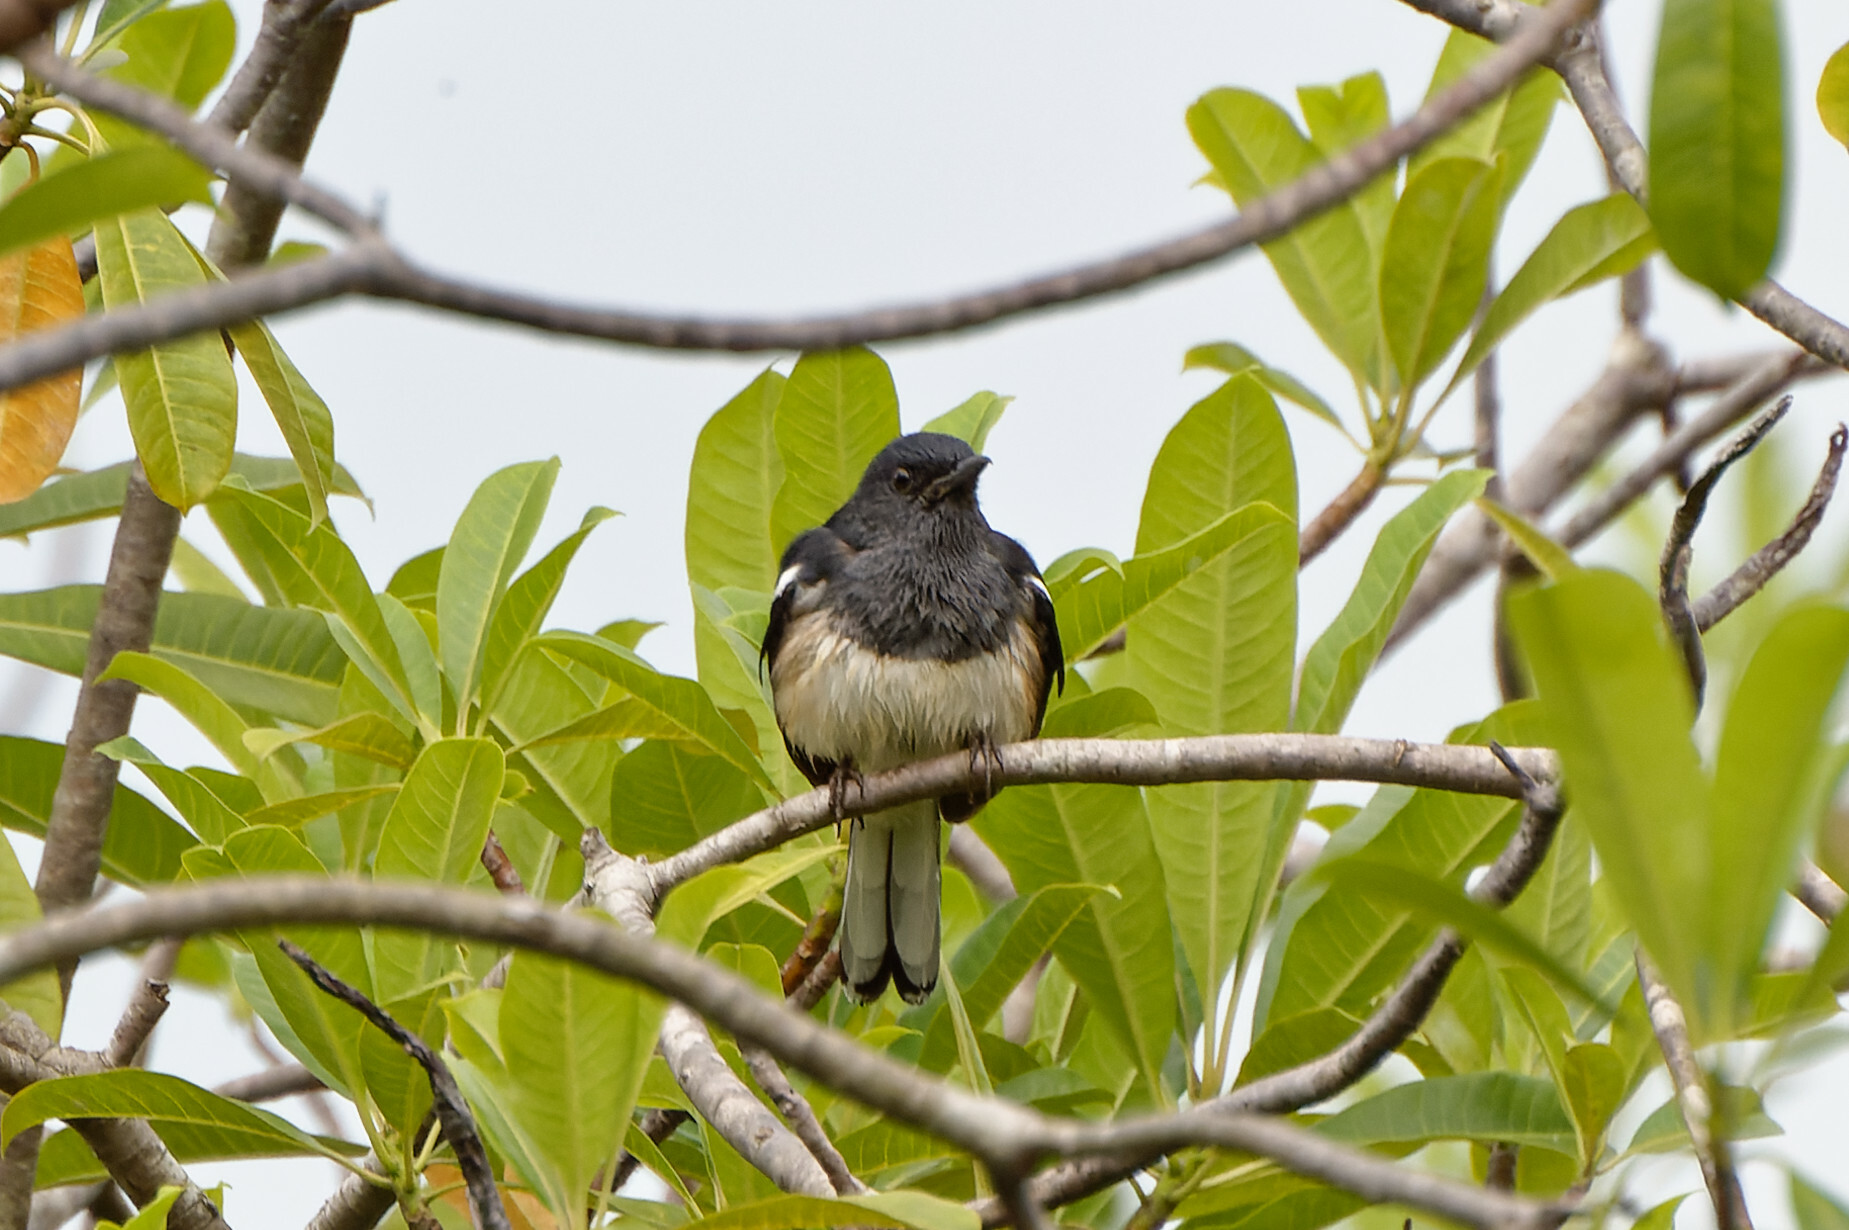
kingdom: Animalia
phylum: Chordata
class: Aves
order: Passeriformes
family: Muscicapidae
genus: Copsychus
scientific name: Copsychus saularis
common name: Oriental magpie-robin
